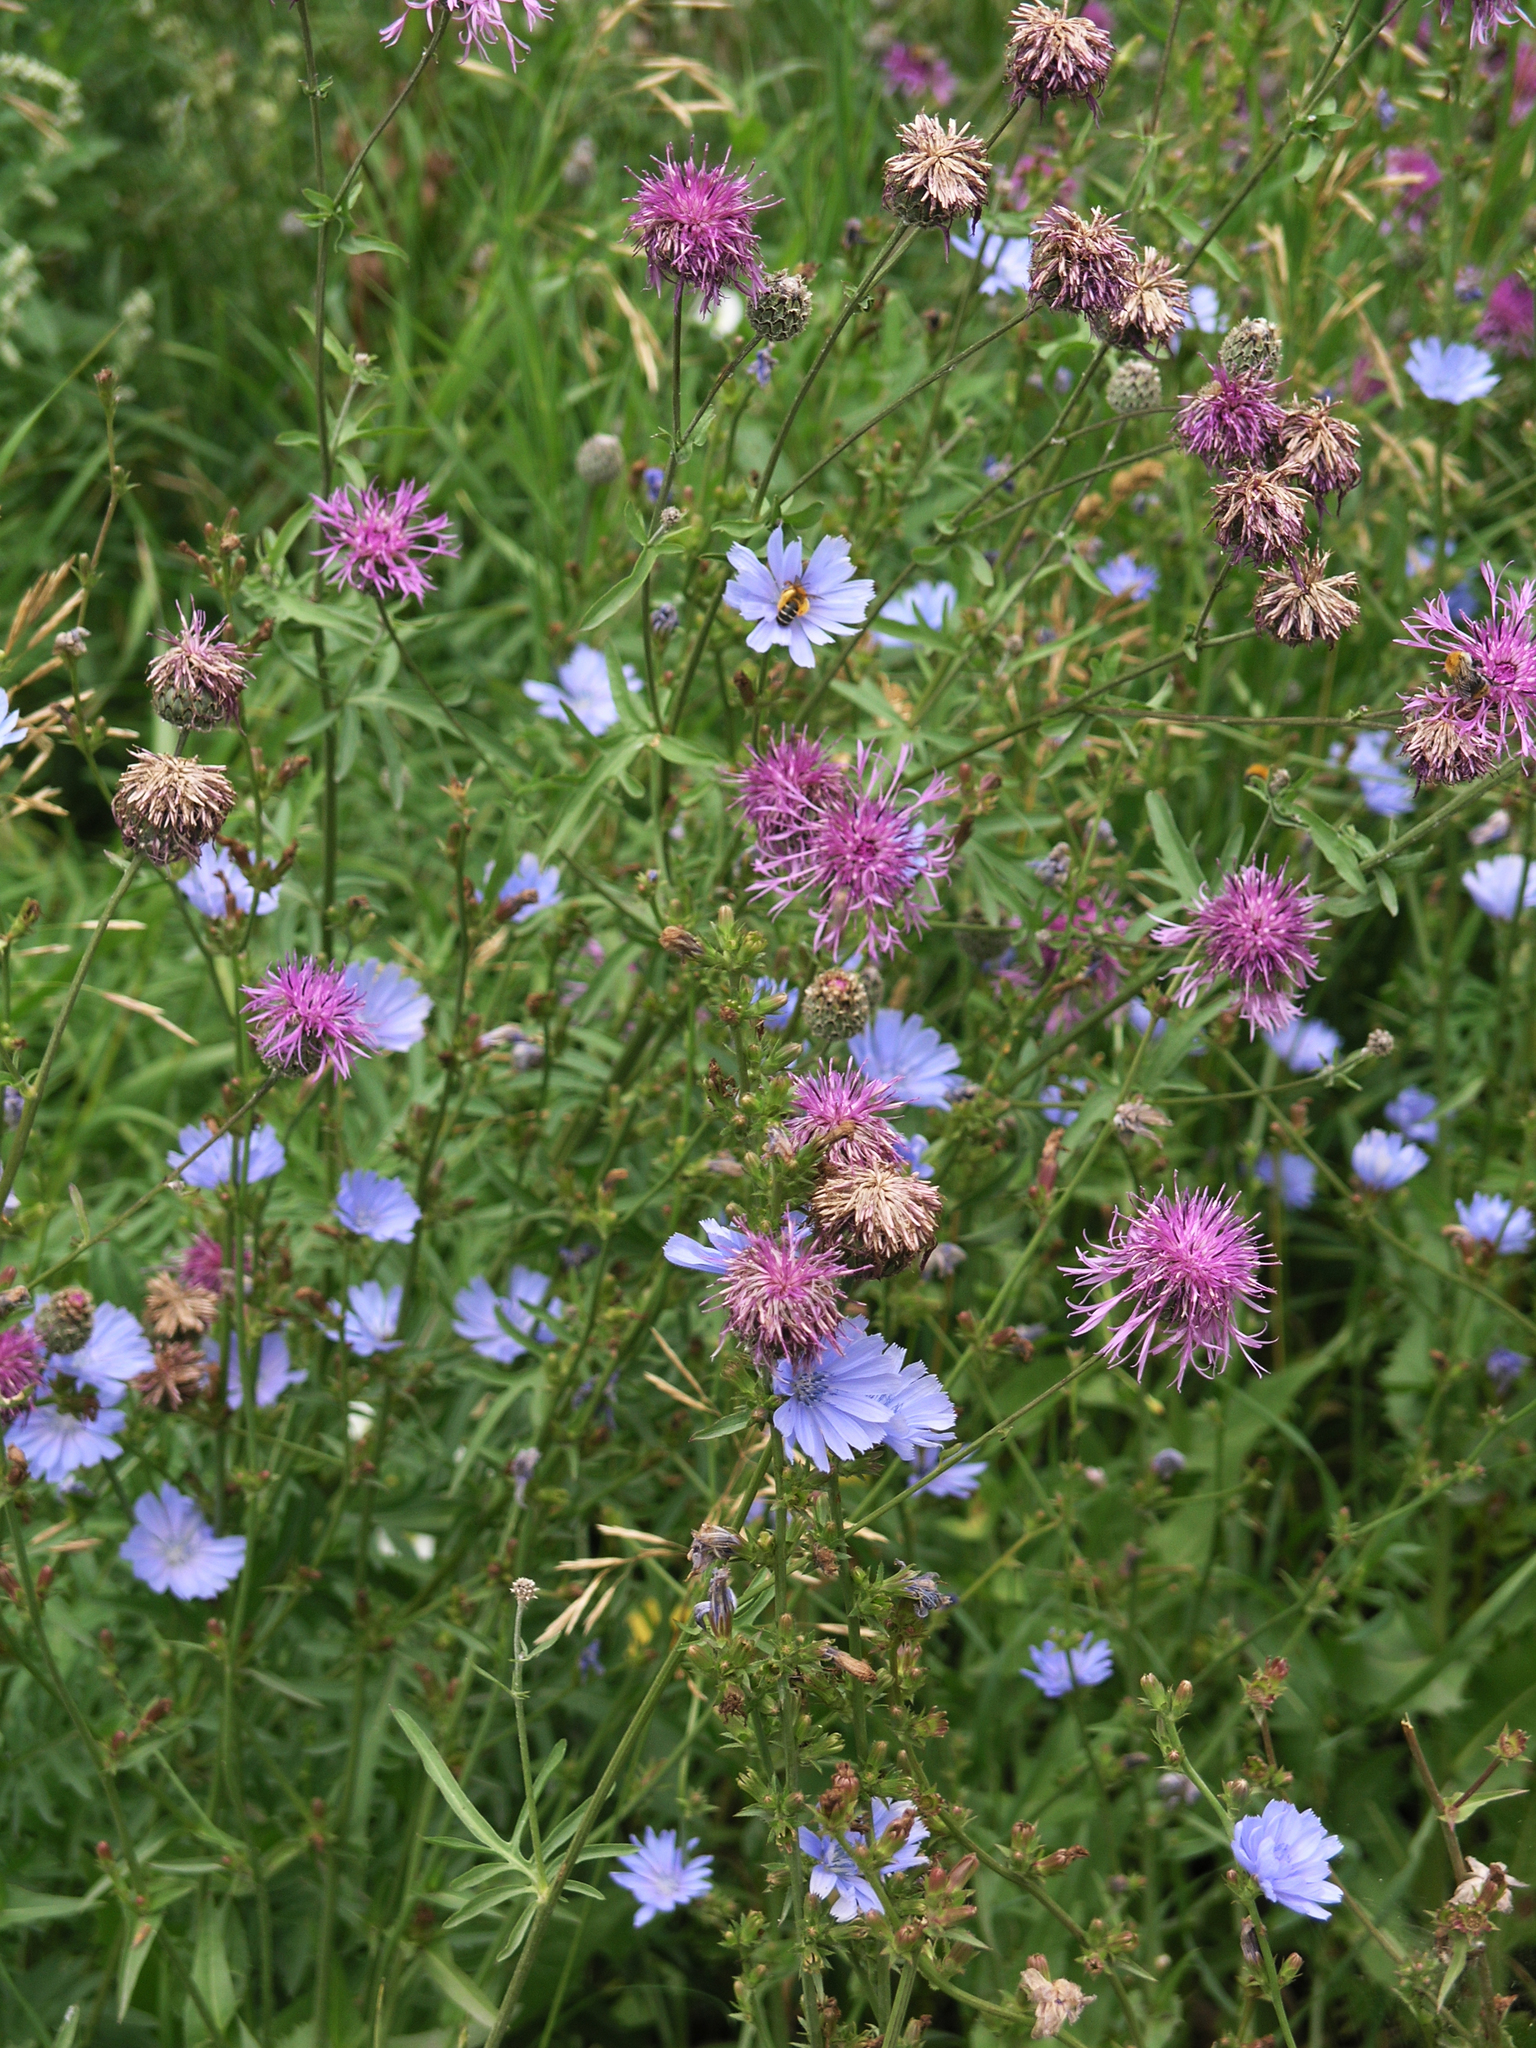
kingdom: Plantae
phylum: Tracheophyta
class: Magnoliopsida
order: Asterales
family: Asteraceae
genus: Centaurea
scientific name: Centaurea scabiosa
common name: Greater knapweed
